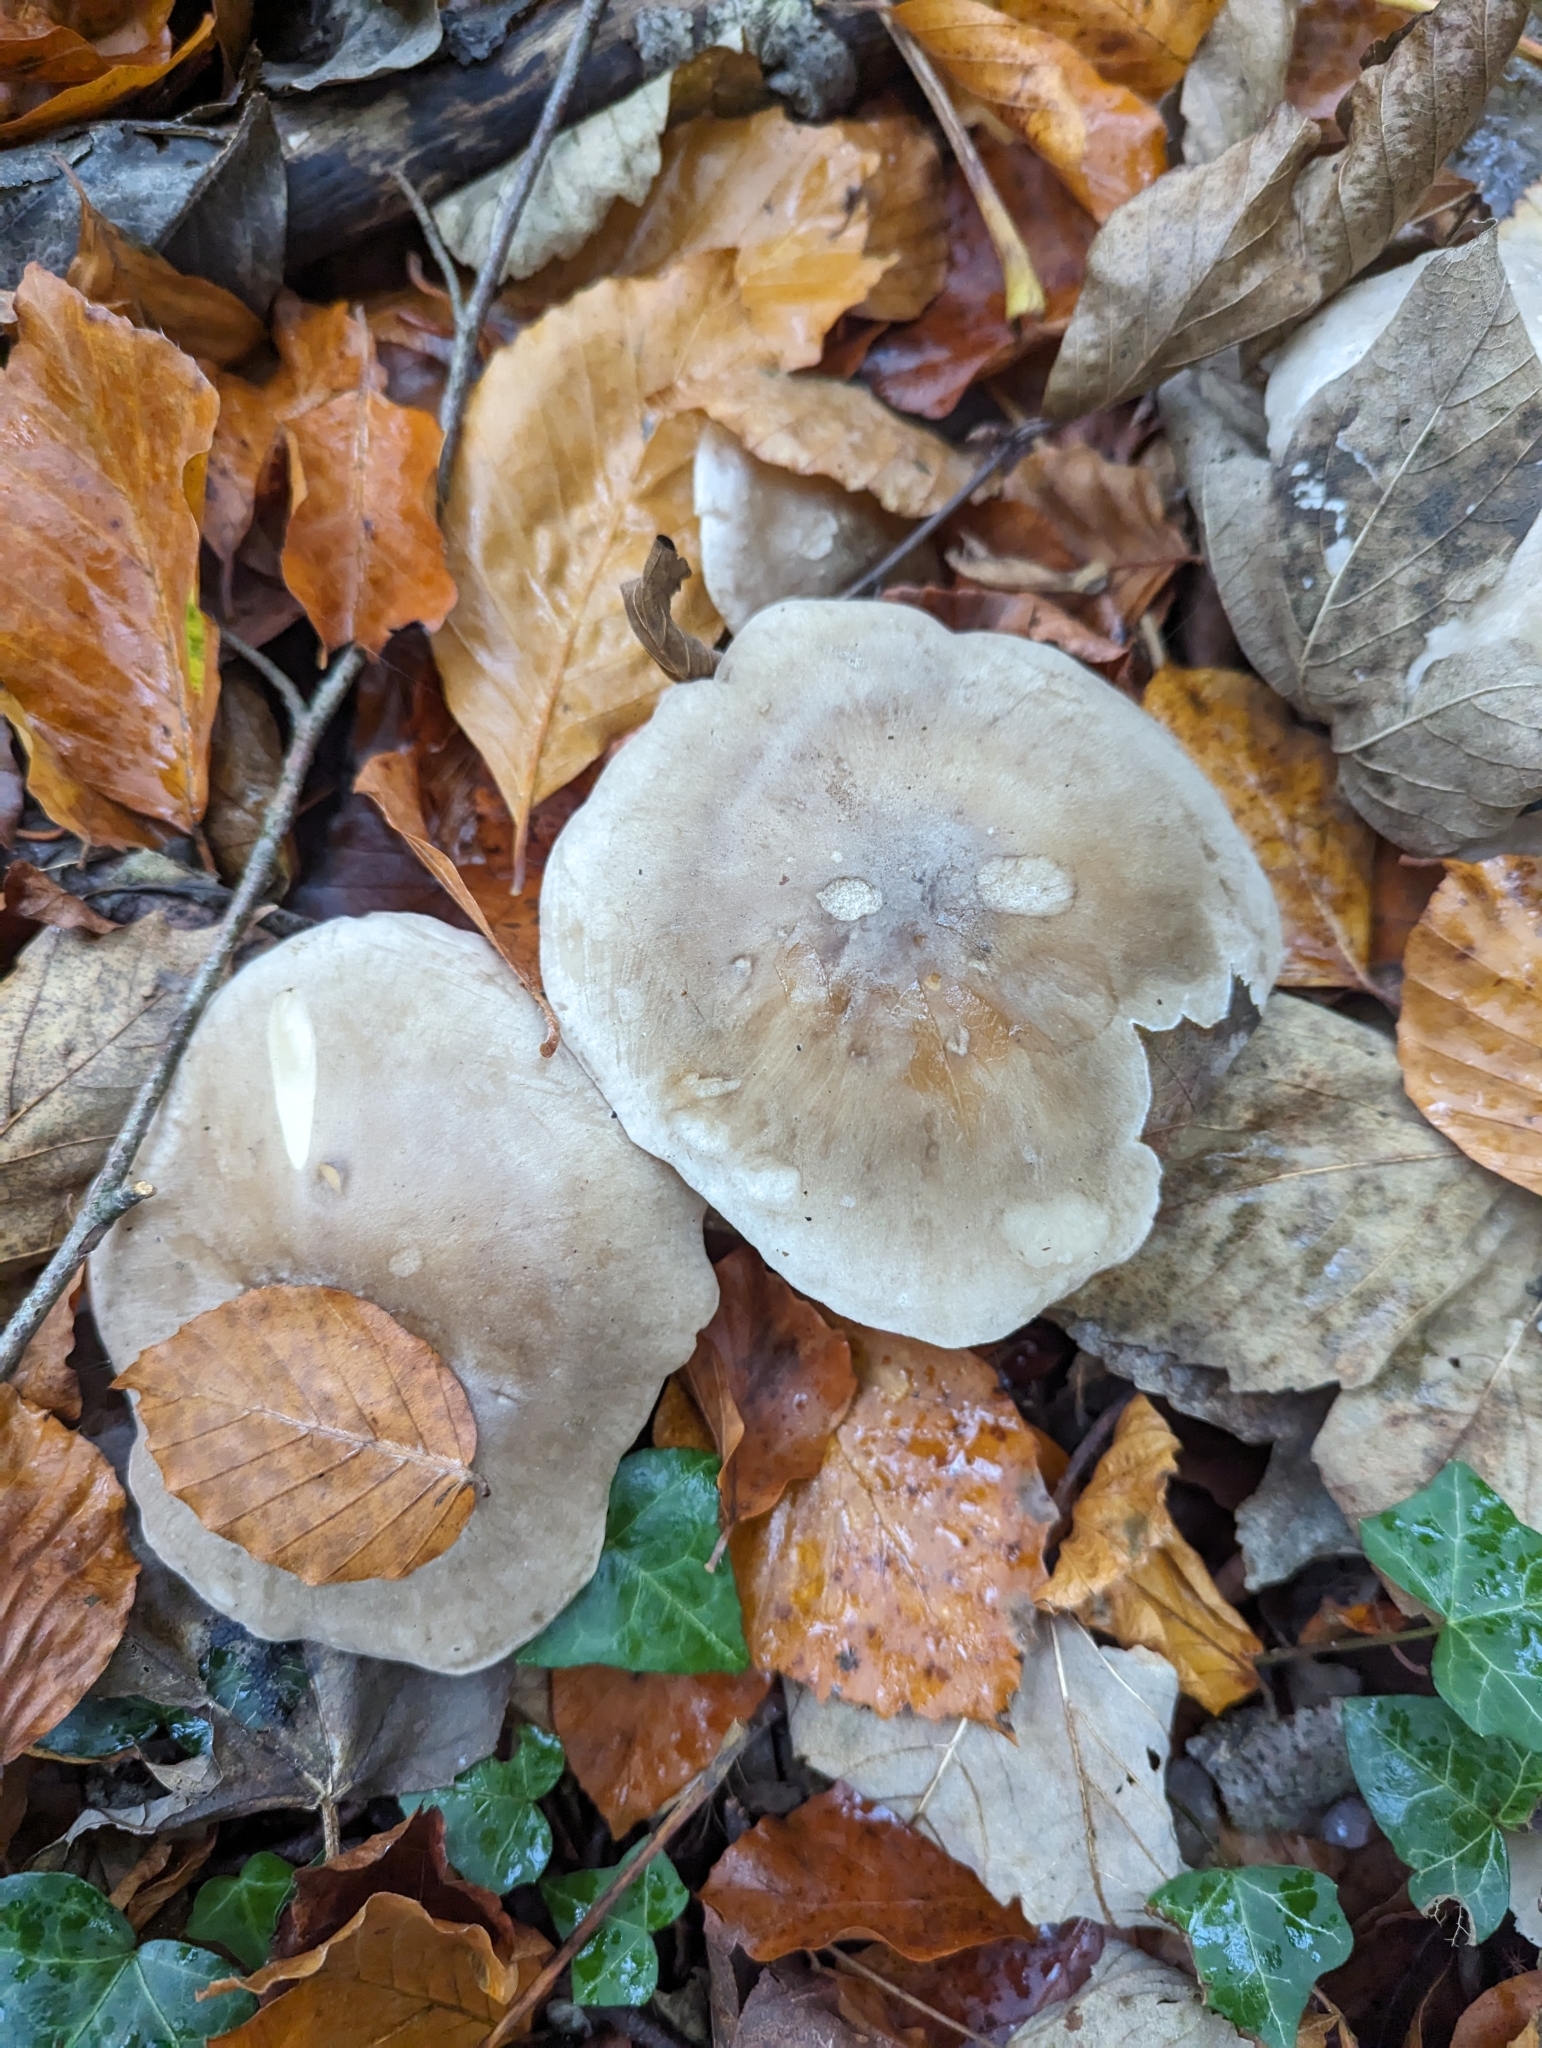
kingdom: Fungi
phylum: Basidiomycota
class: Agaricomycetes
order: Agaricales
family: Tricholomataceae
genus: Clitocybe
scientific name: Clitocybe nebularis
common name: Clouded agaric
